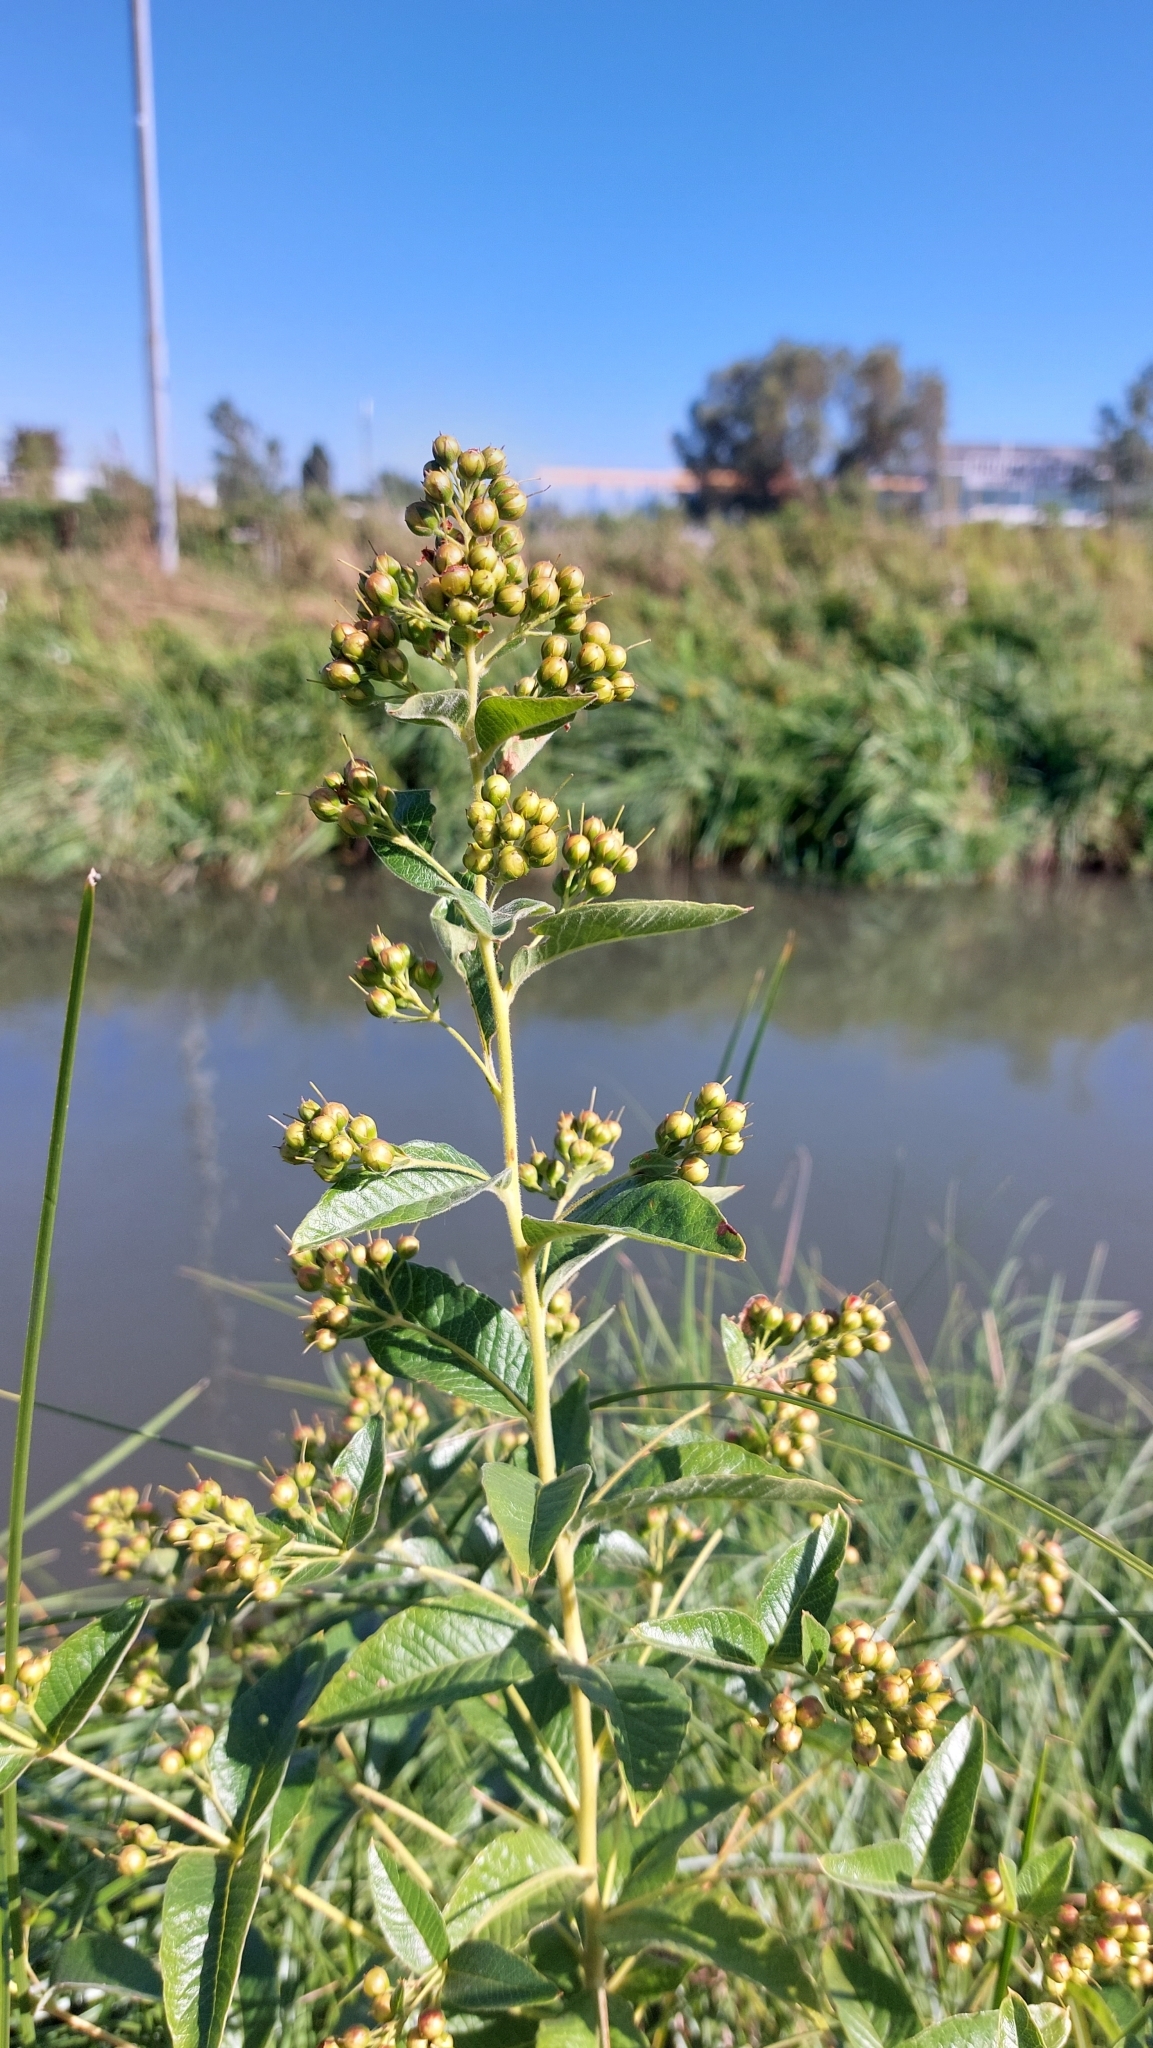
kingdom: Plantae
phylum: Tracheophyta
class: Magnoliopsida
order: Ericales
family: Primulaceae
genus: Lysimachia
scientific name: Lysimachia vulgaris
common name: Yellow loosestrife
